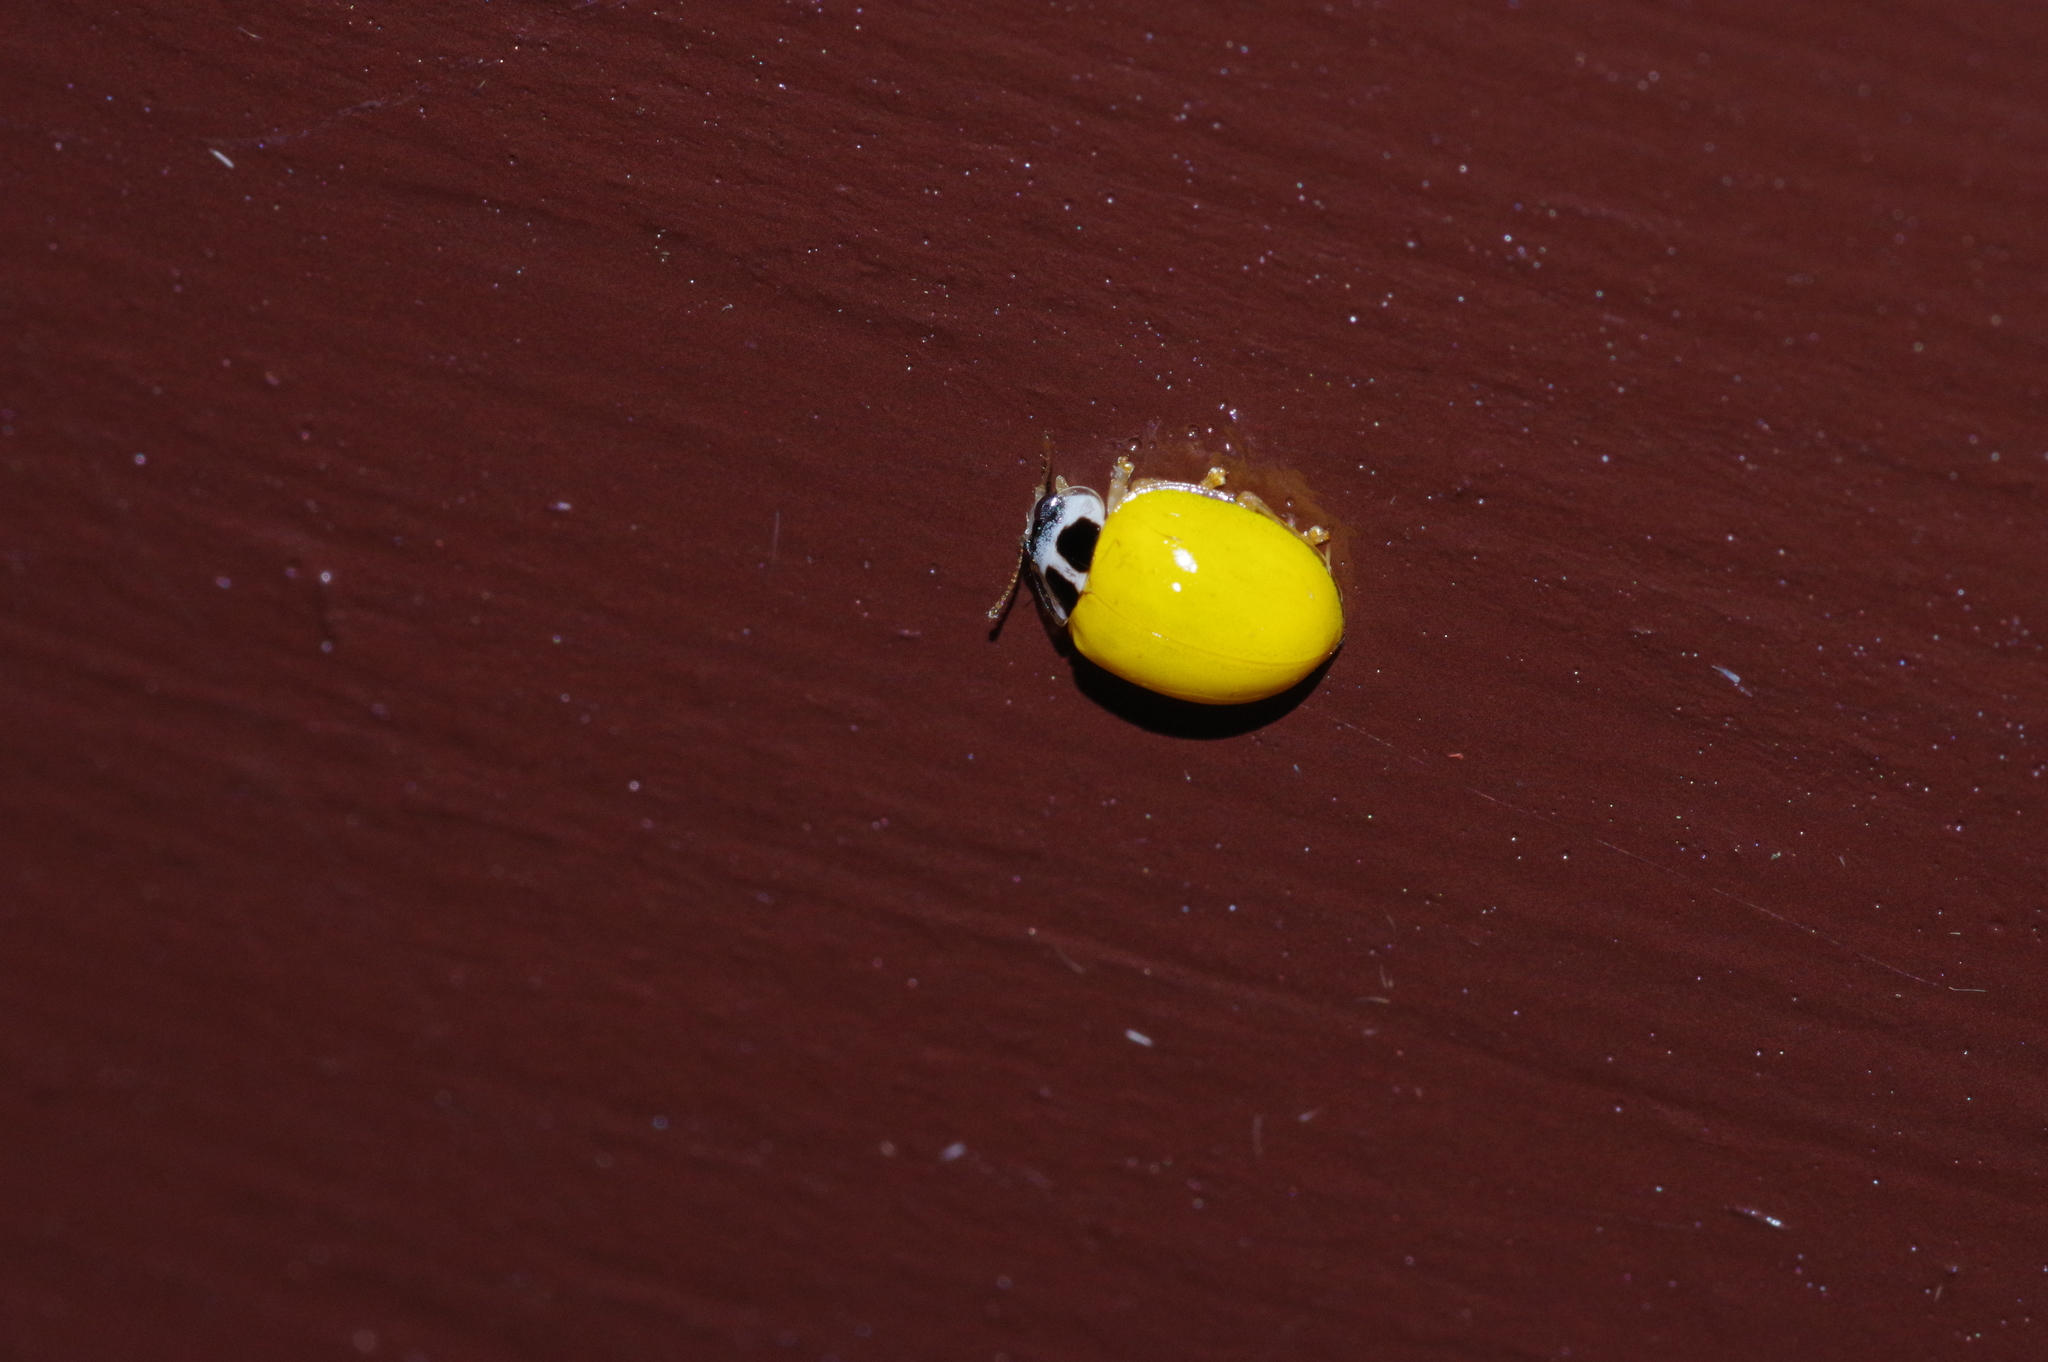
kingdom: Animalia
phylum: Arthropoda
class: Insecta
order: Coleoptera
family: Coccinellidae
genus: Illeis
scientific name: Illeis koebelei
